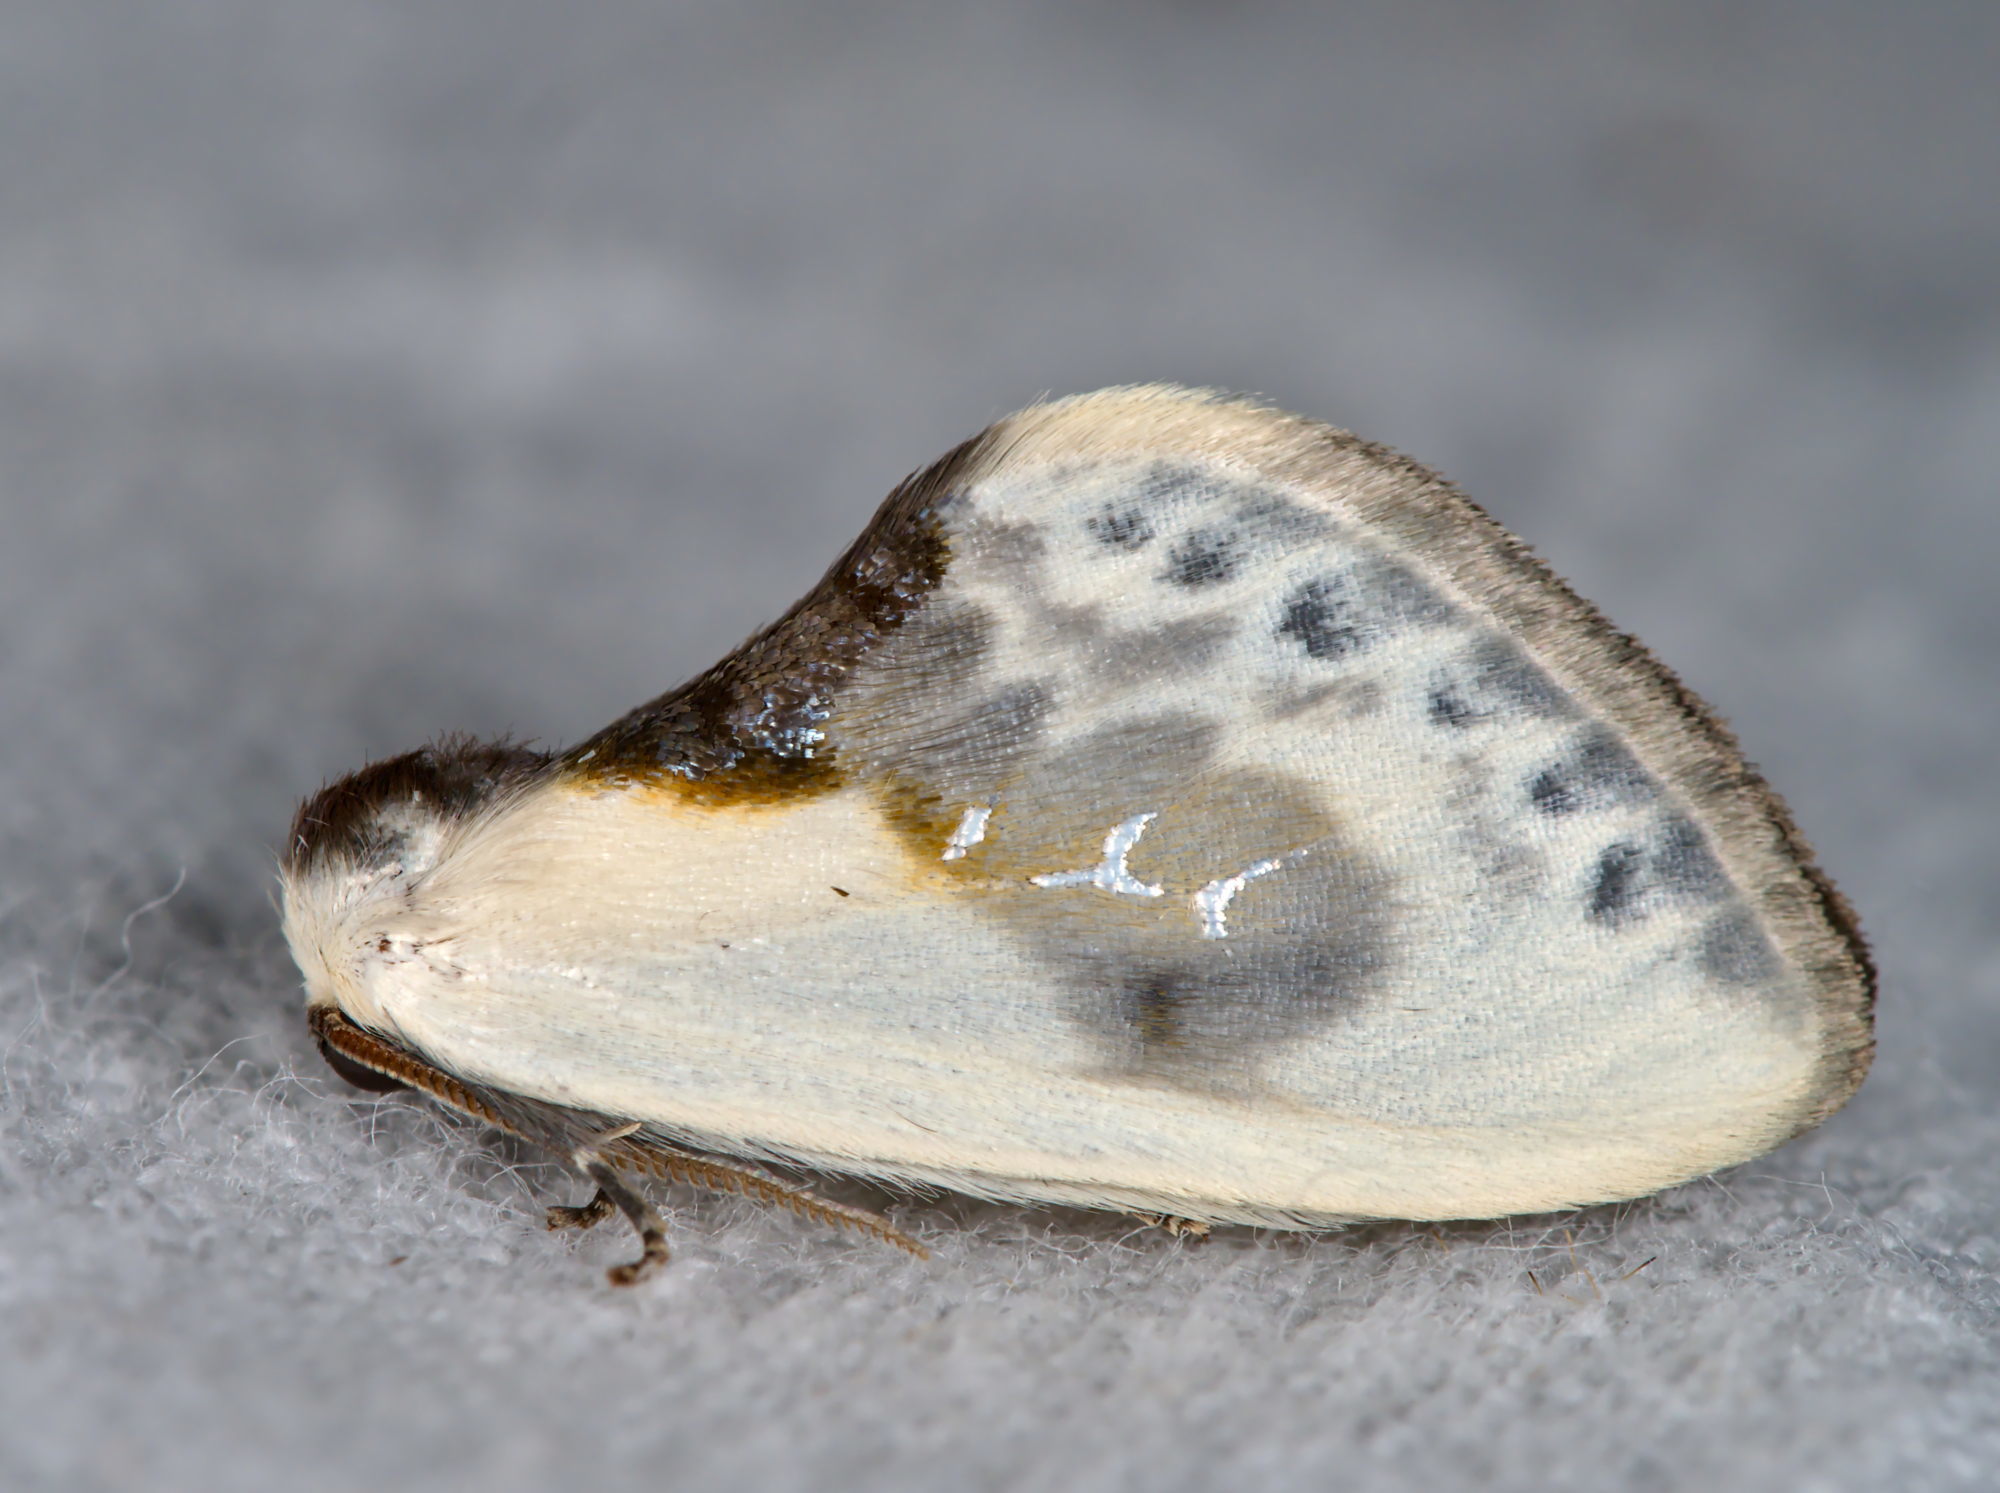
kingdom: Animalia
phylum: Arthropoda
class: Insecta
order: Lepidoptera
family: Drepanidae
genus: Cilix
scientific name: Cilix glaucata
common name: Chinese character
